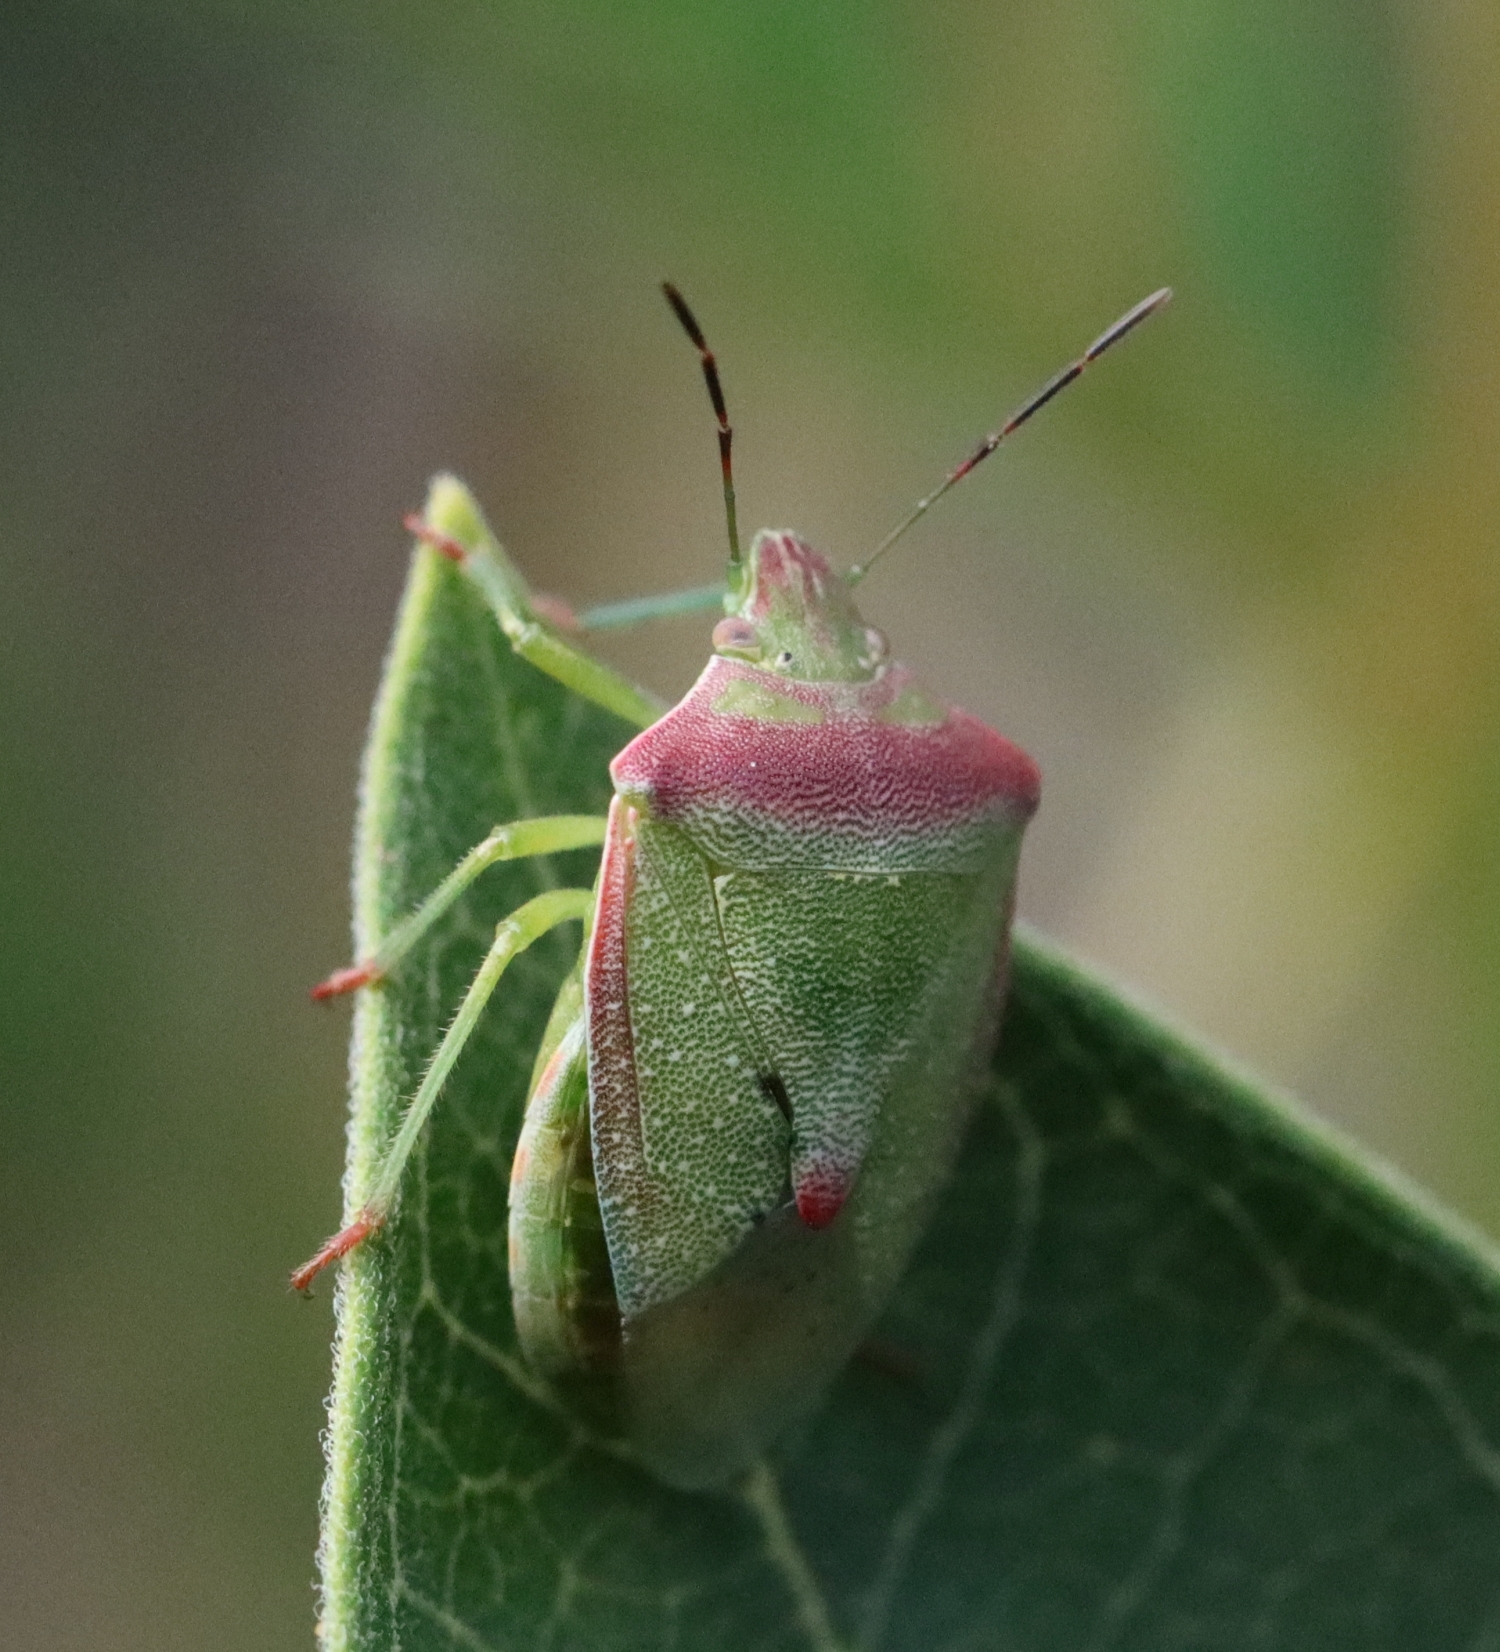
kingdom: Animalia
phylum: Arthropoda
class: Insecta
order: Hemiptera
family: Pentatomidae
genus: Thyanta
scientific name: Thyanta custator
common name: Stink bug
